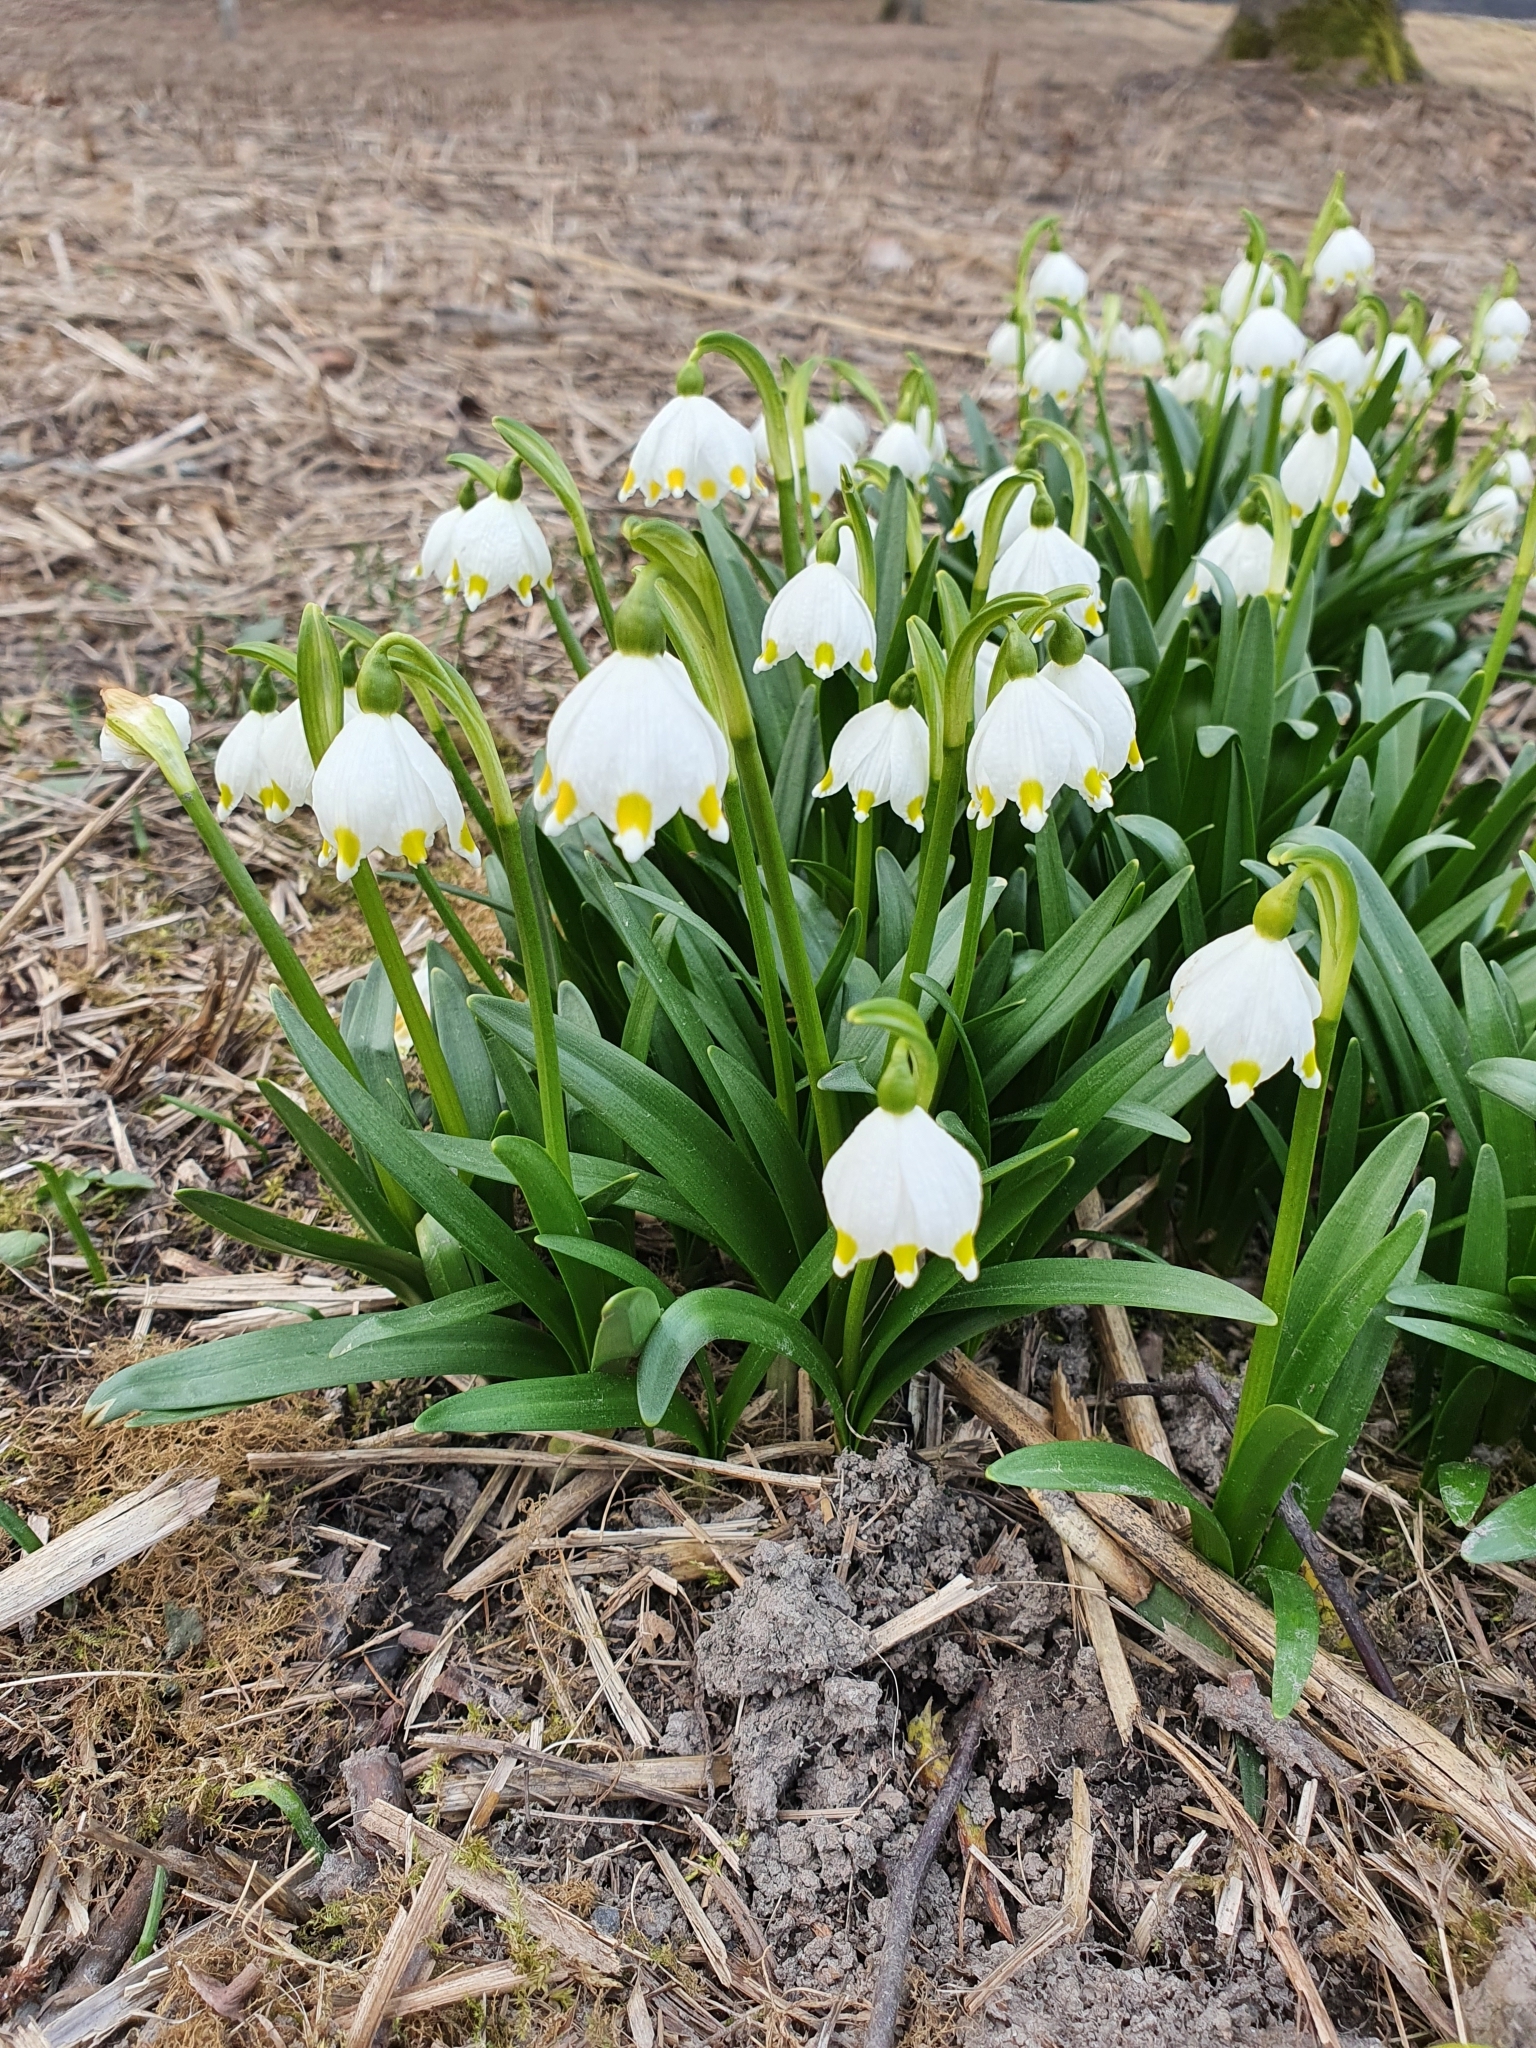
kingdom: Plantae
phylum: Tracheophyta
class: Liliopsida
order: Asparagales
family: Amaryllidaceae
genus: Leucojum
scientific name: Leucojum vernum
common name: Spring snowflake
